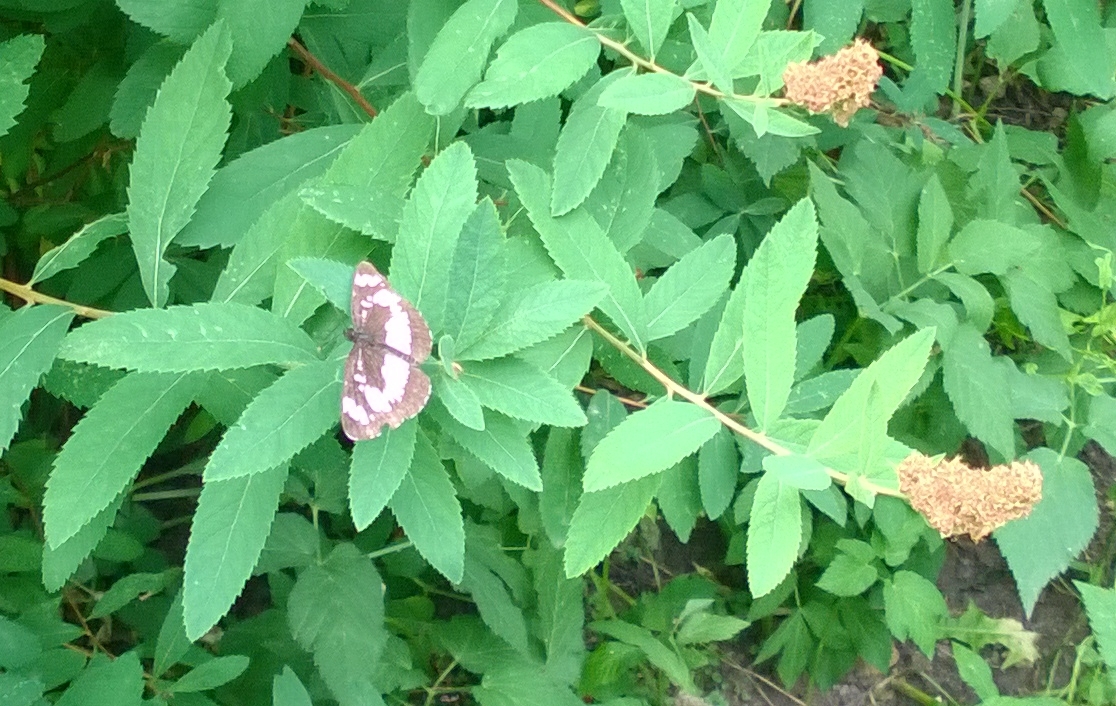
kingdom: Animalia
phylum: Arthropoda
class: Insecta
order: Lepidoptera
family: Nymphalidae
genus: Neptis
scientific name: Neptis rivularis
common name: Hungarian glider
